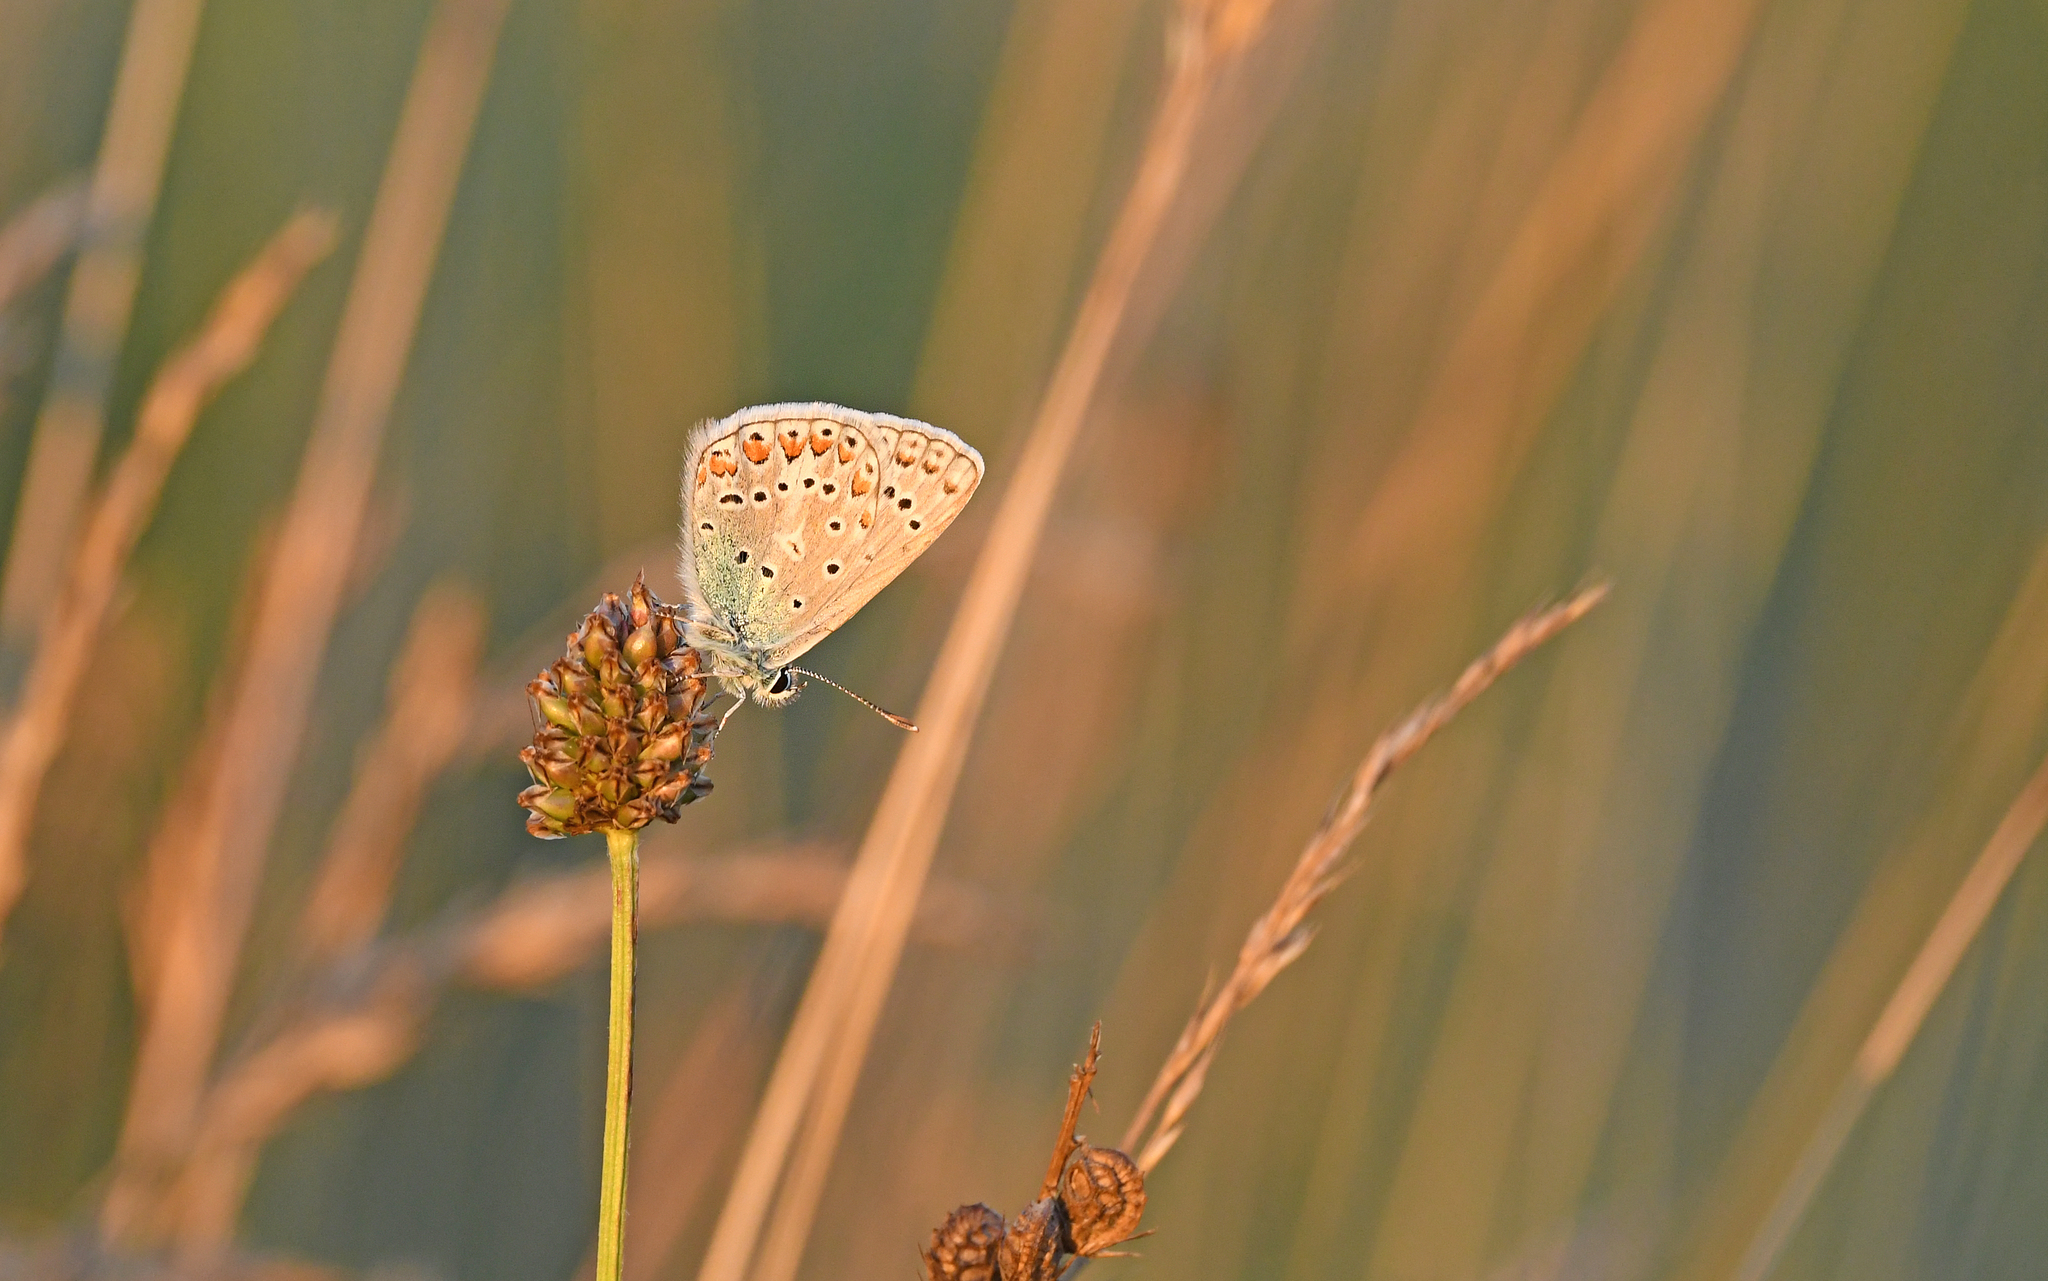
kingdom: Animalia
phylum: Arthropoda
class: Insecta
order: Lepidoptera
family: Lycaenidae
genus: Polyommatus
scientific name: Polyommatus icarus
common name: Common blue
